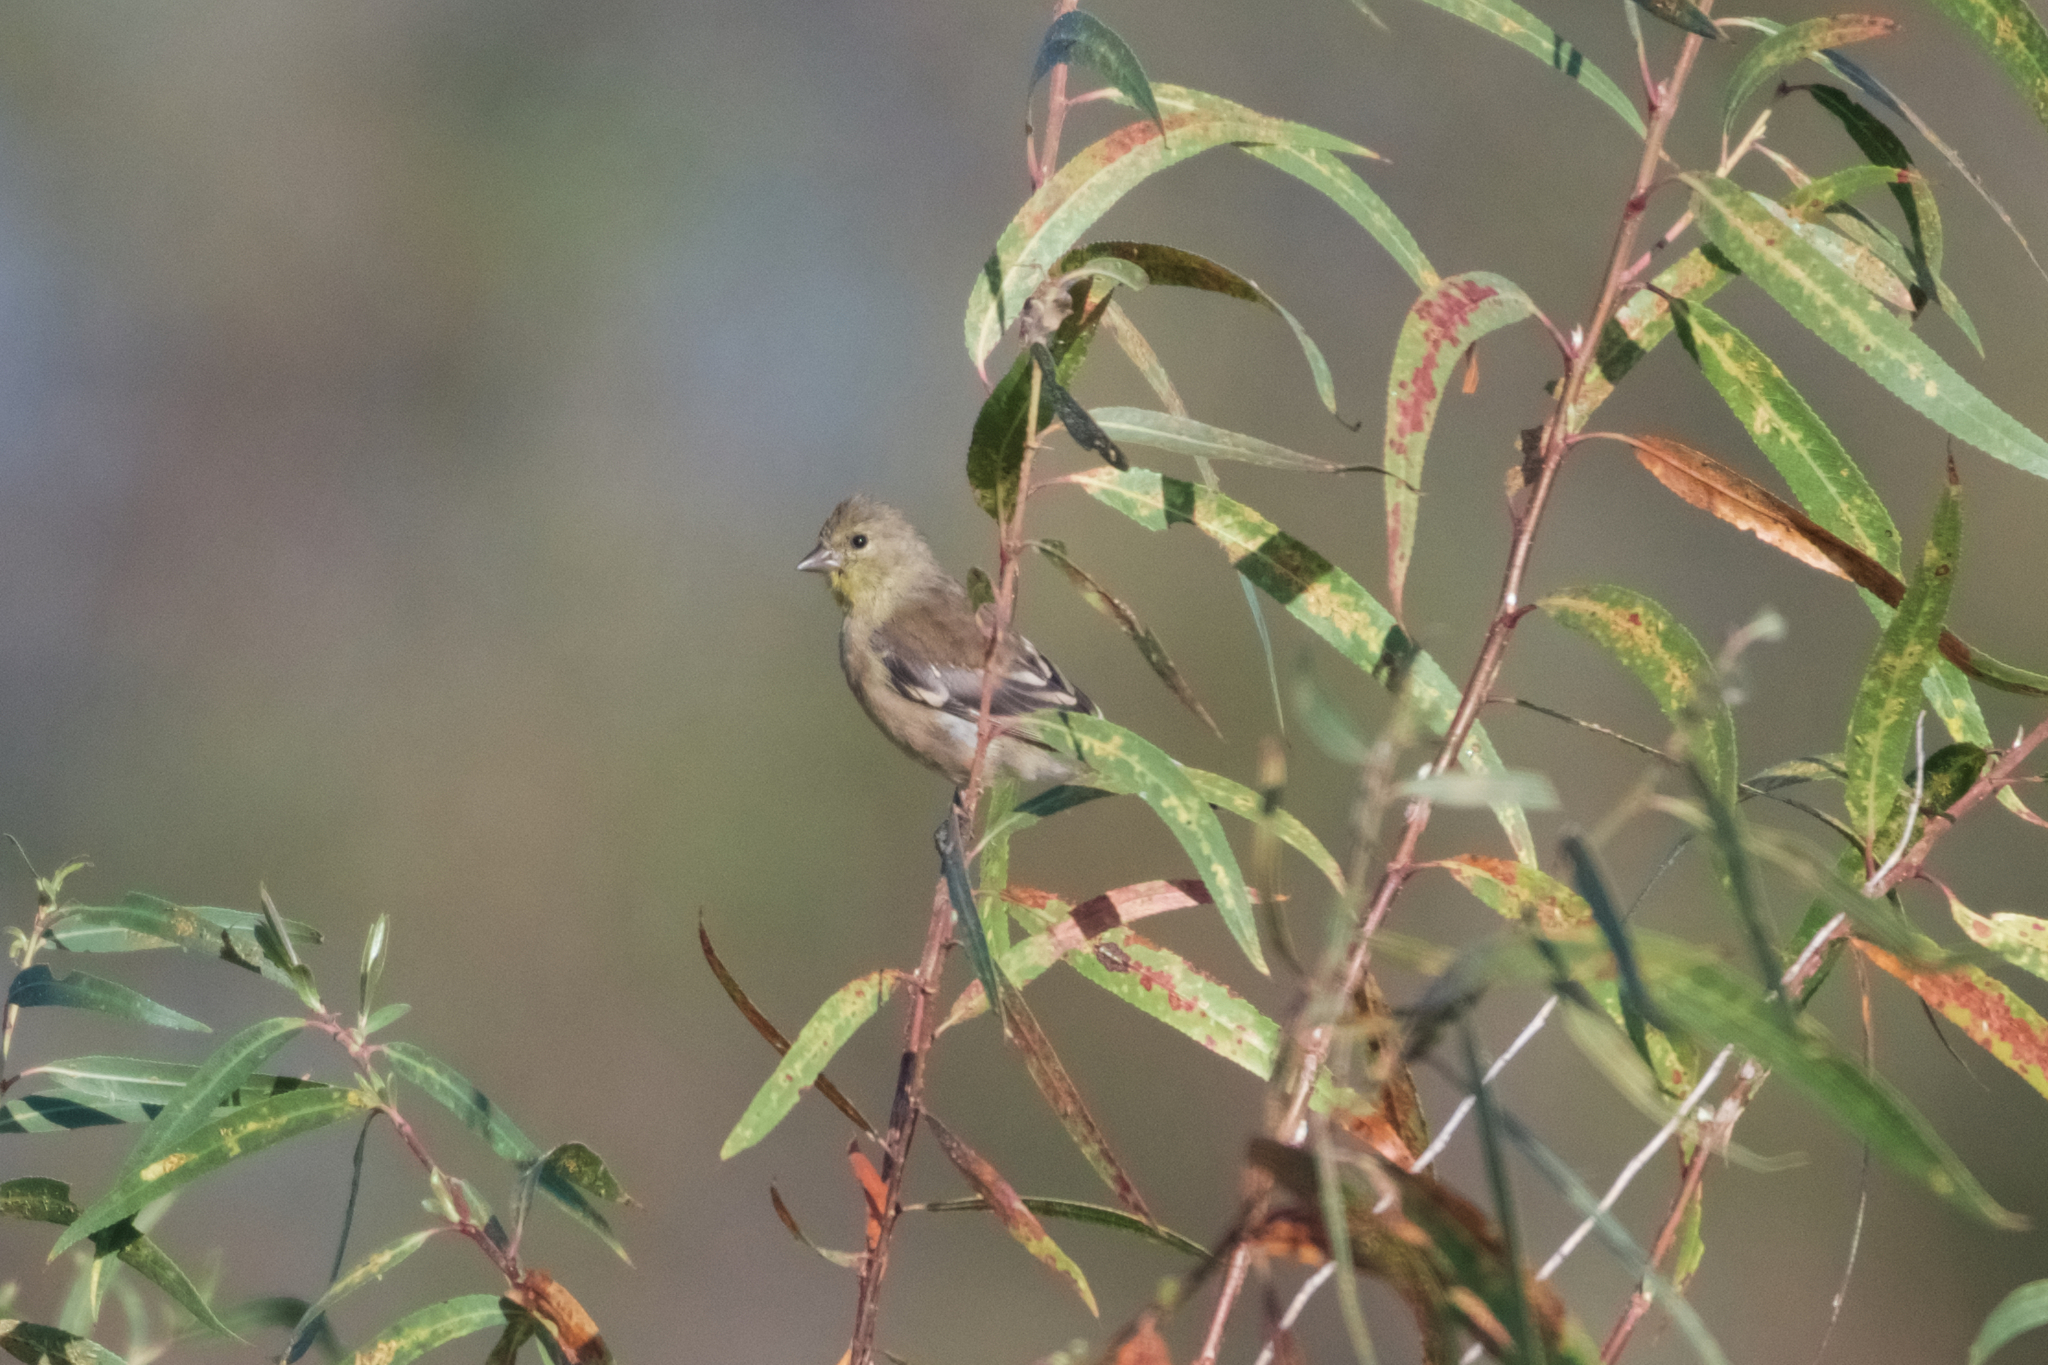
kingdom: Animalia
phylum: Chordata
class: Aves
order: Passeriformes
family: Fringillidae
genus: Spinus
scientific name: Spinus tristis
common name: American goldfinch
